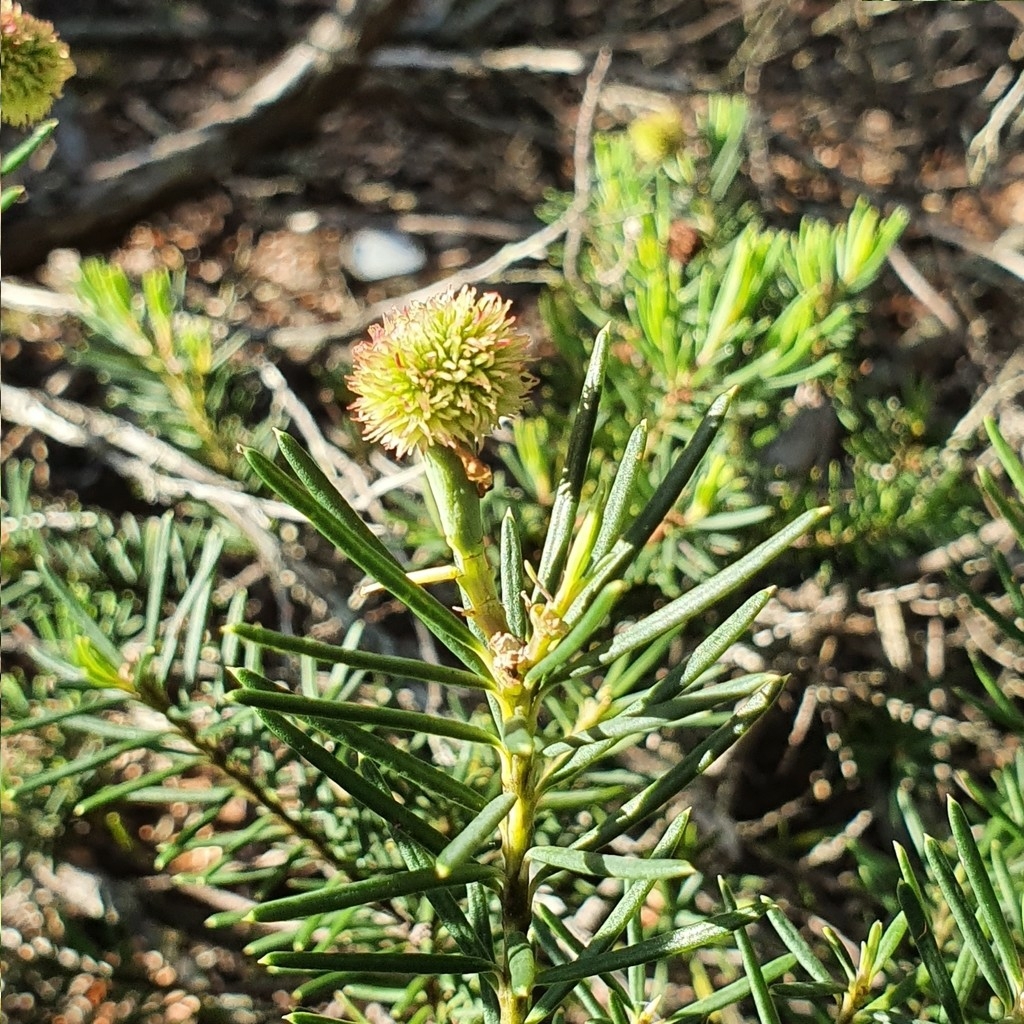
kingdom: Plantae
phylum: Tracheophyta
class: Magnoliopsida
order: Malpighiales
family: Euphorbiaceae
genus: Ricinocarpos
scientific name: Ricinocarpos pinifolius
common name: Weddingbush
